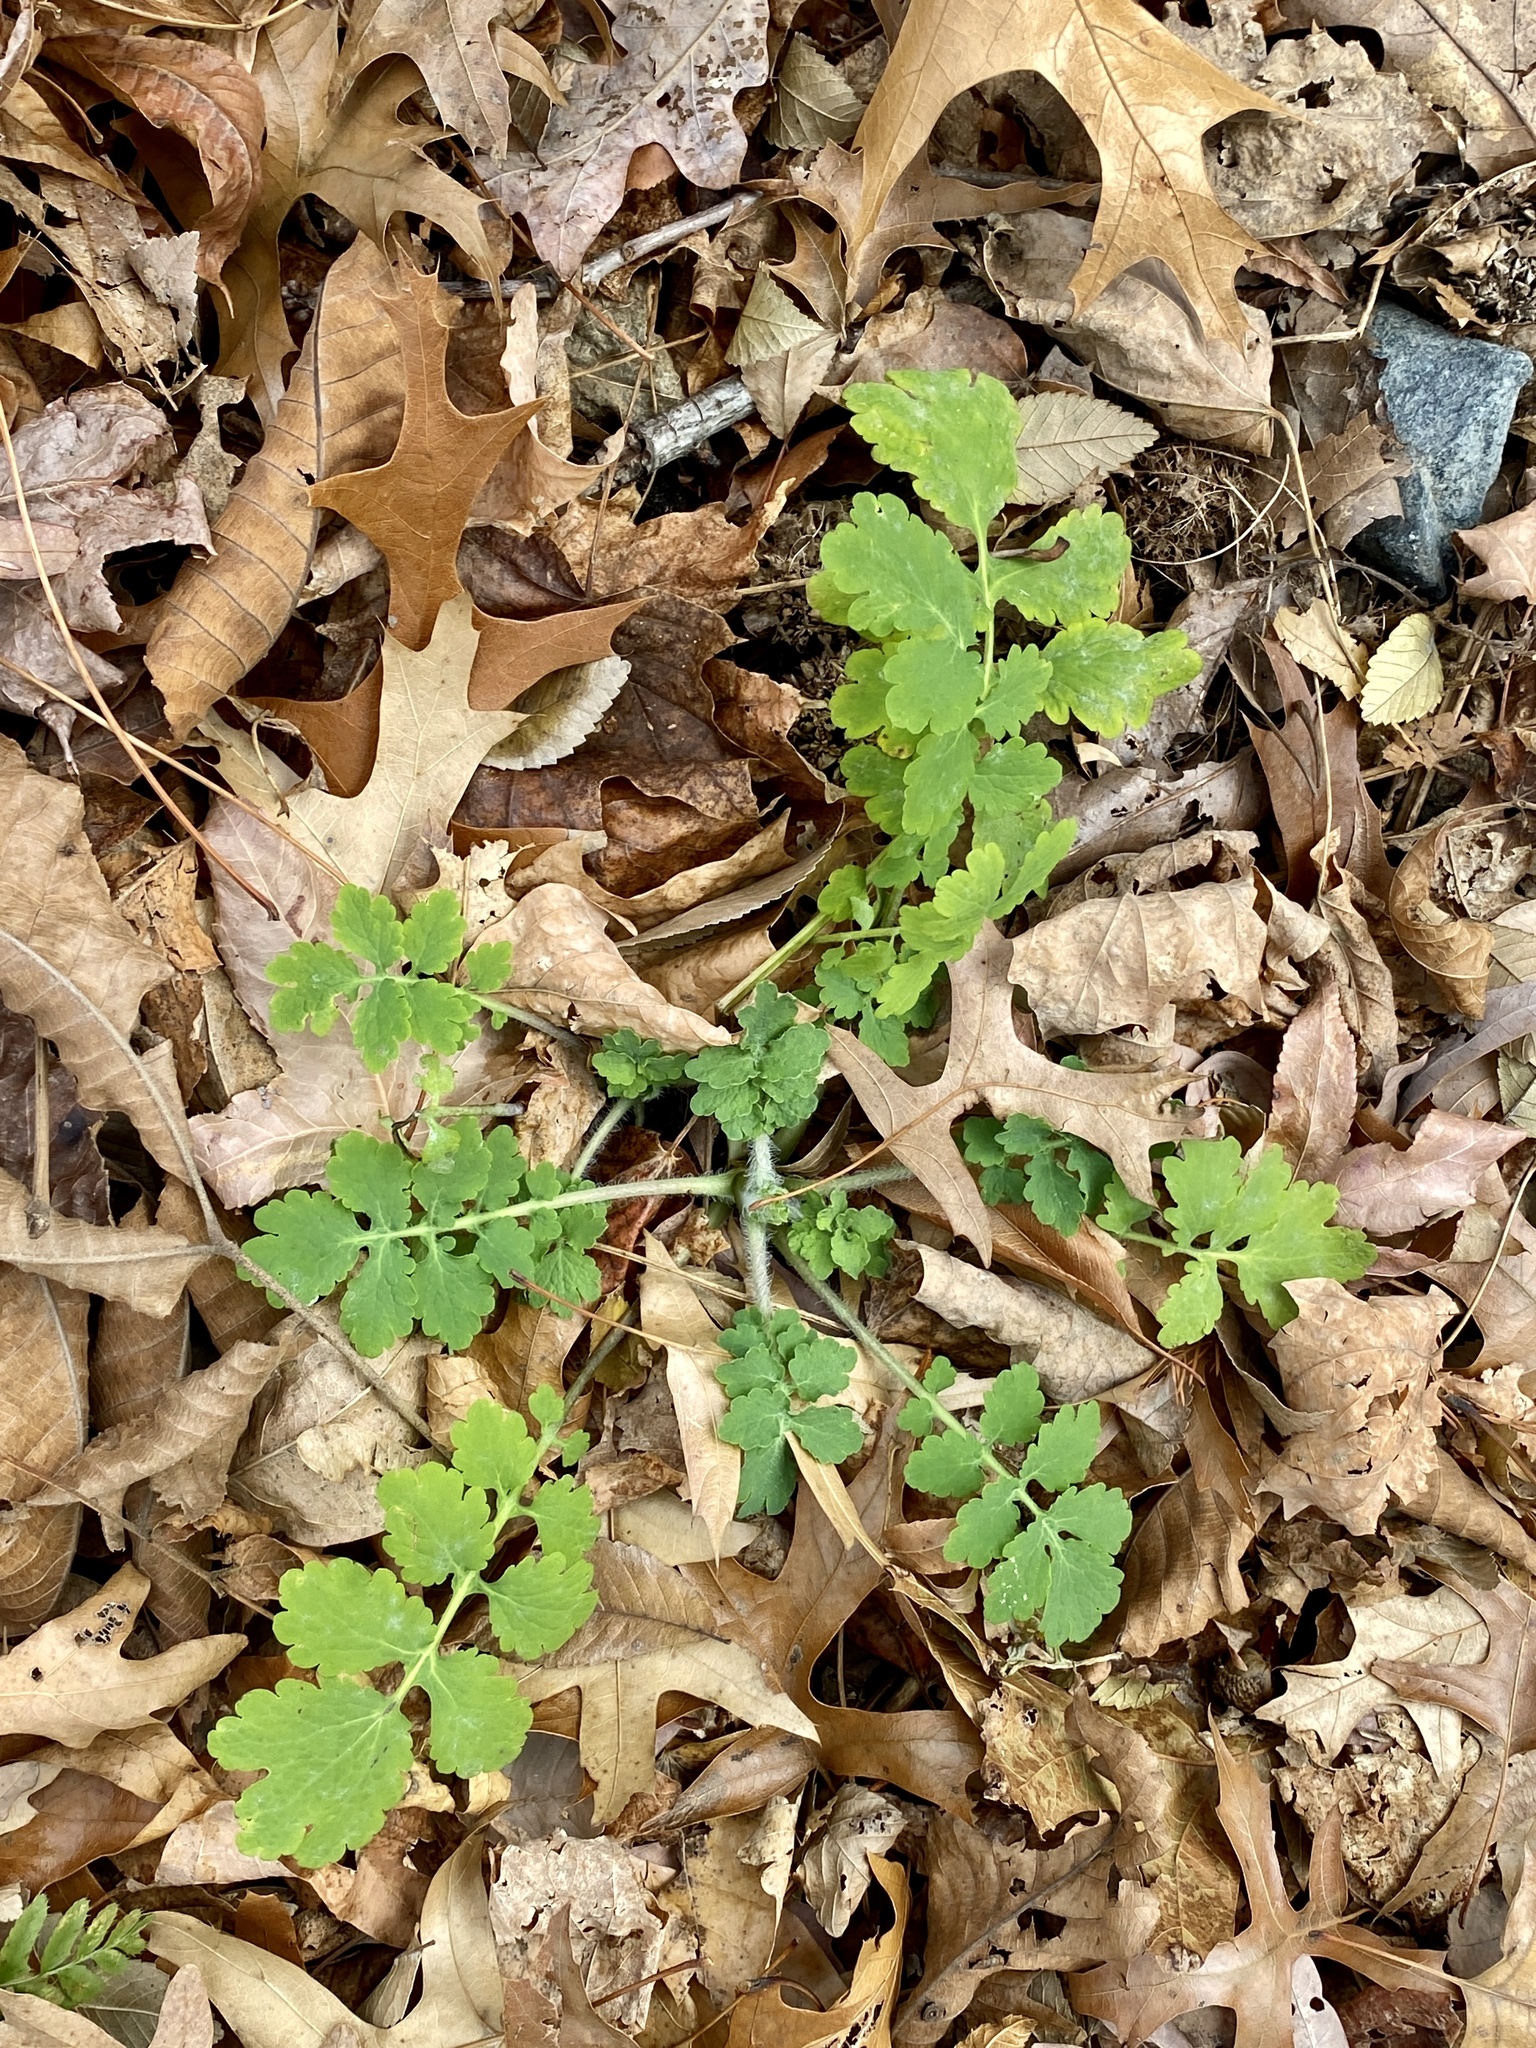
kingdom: Plantae
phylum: Tracheophyta
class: Magnoliopsida
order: Ranunculales
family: Papaveraceae
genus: Chelidonium
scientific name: Chelidonium majus
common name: Greater celandine
